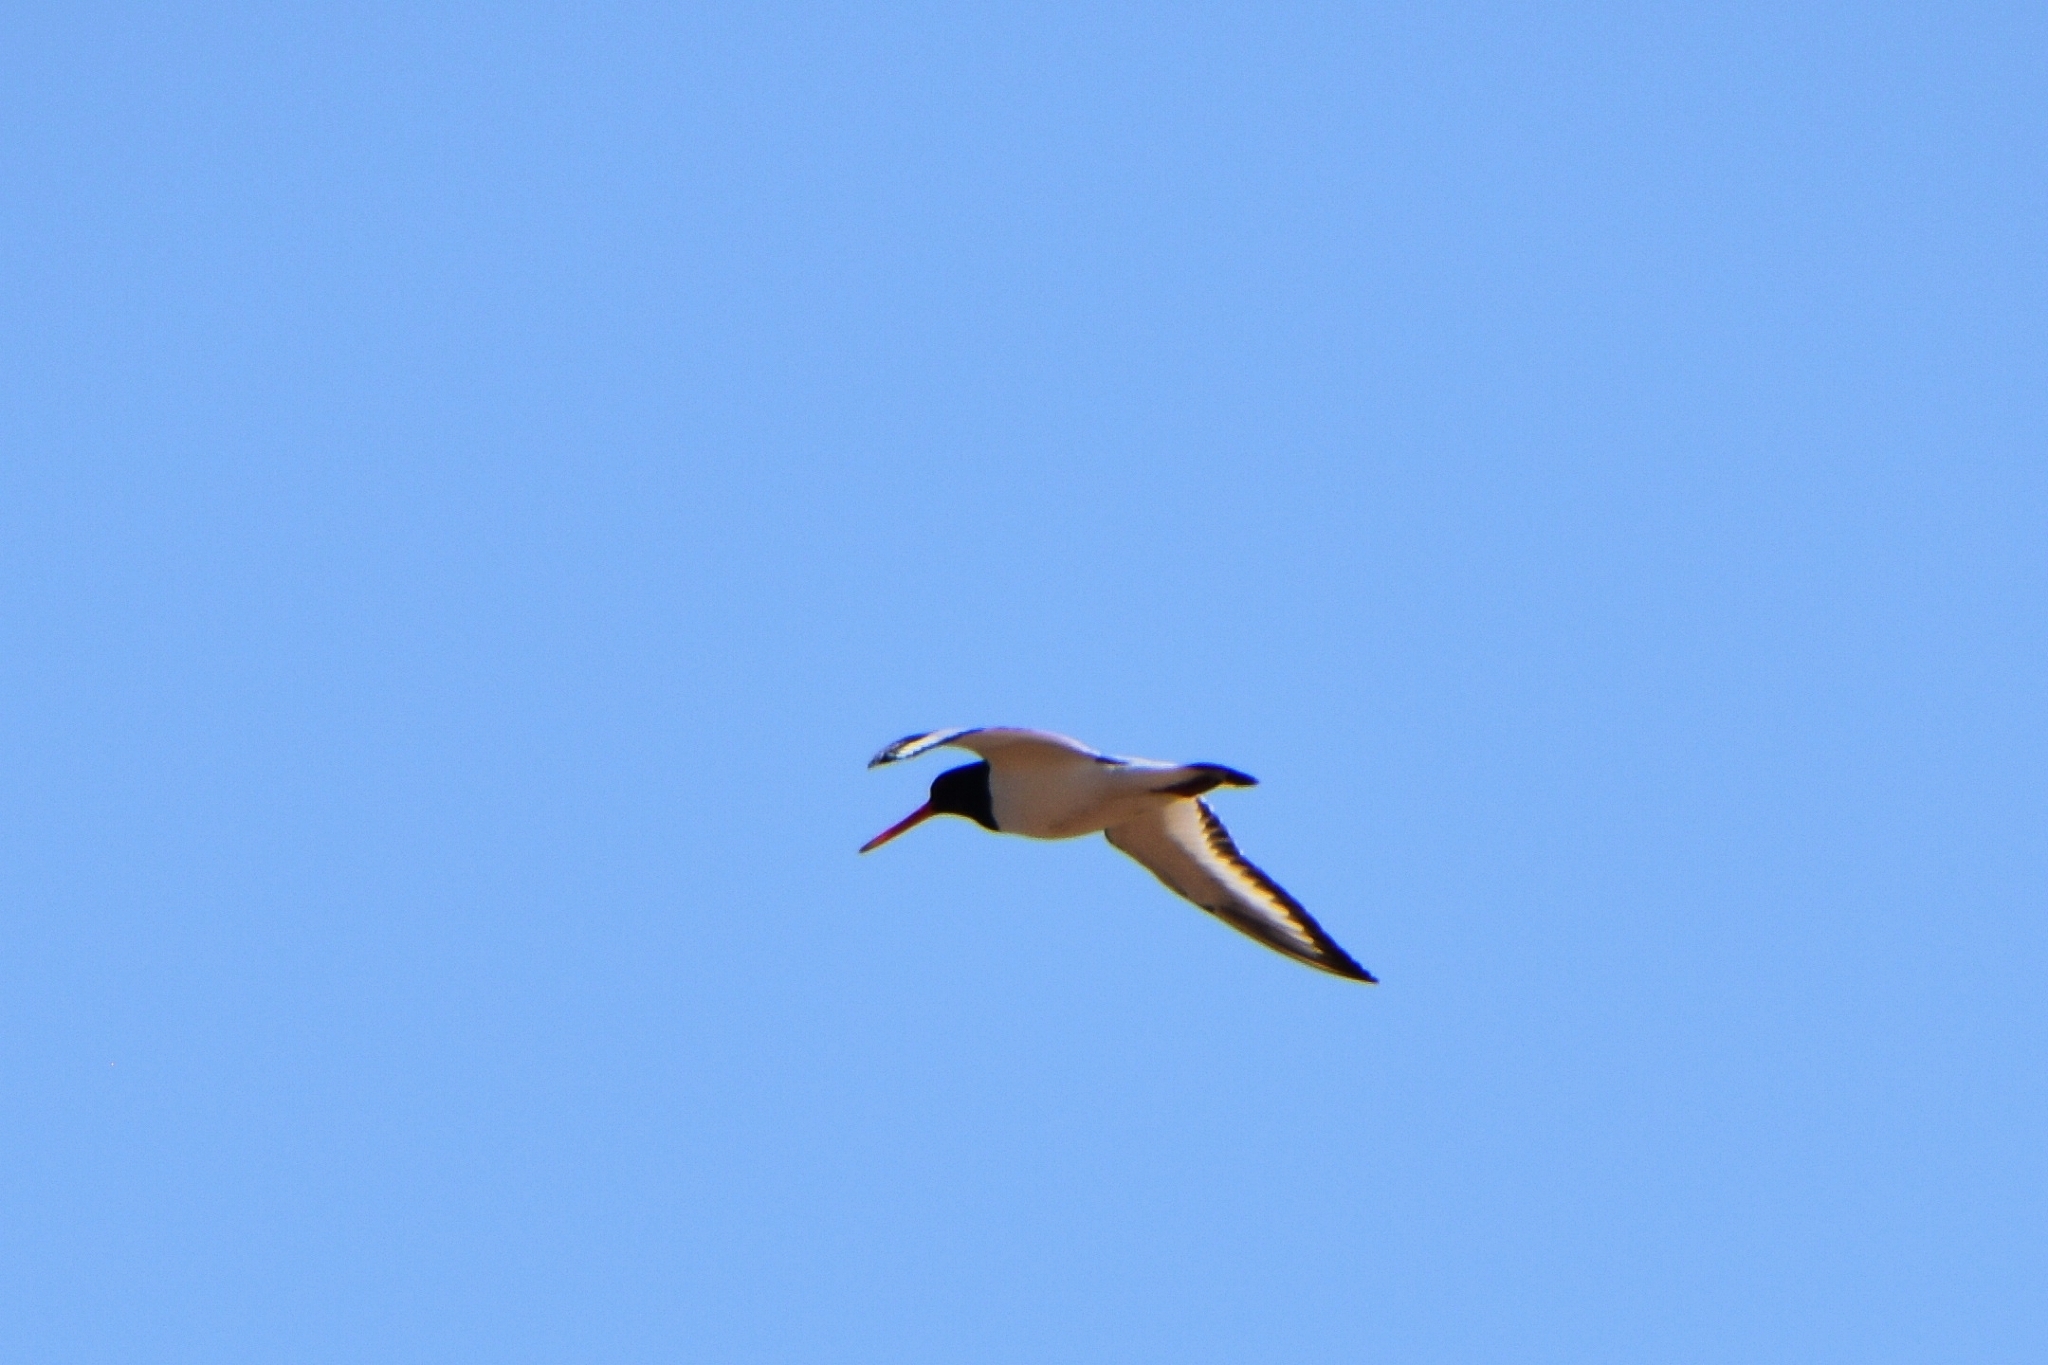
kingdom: Animalia
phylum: Chordata
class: Aves
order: Charadriiformes
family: Haematopodidae
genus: Haematopus
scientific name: Haematopus ostralegus
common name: Eurasian oystercatcher
